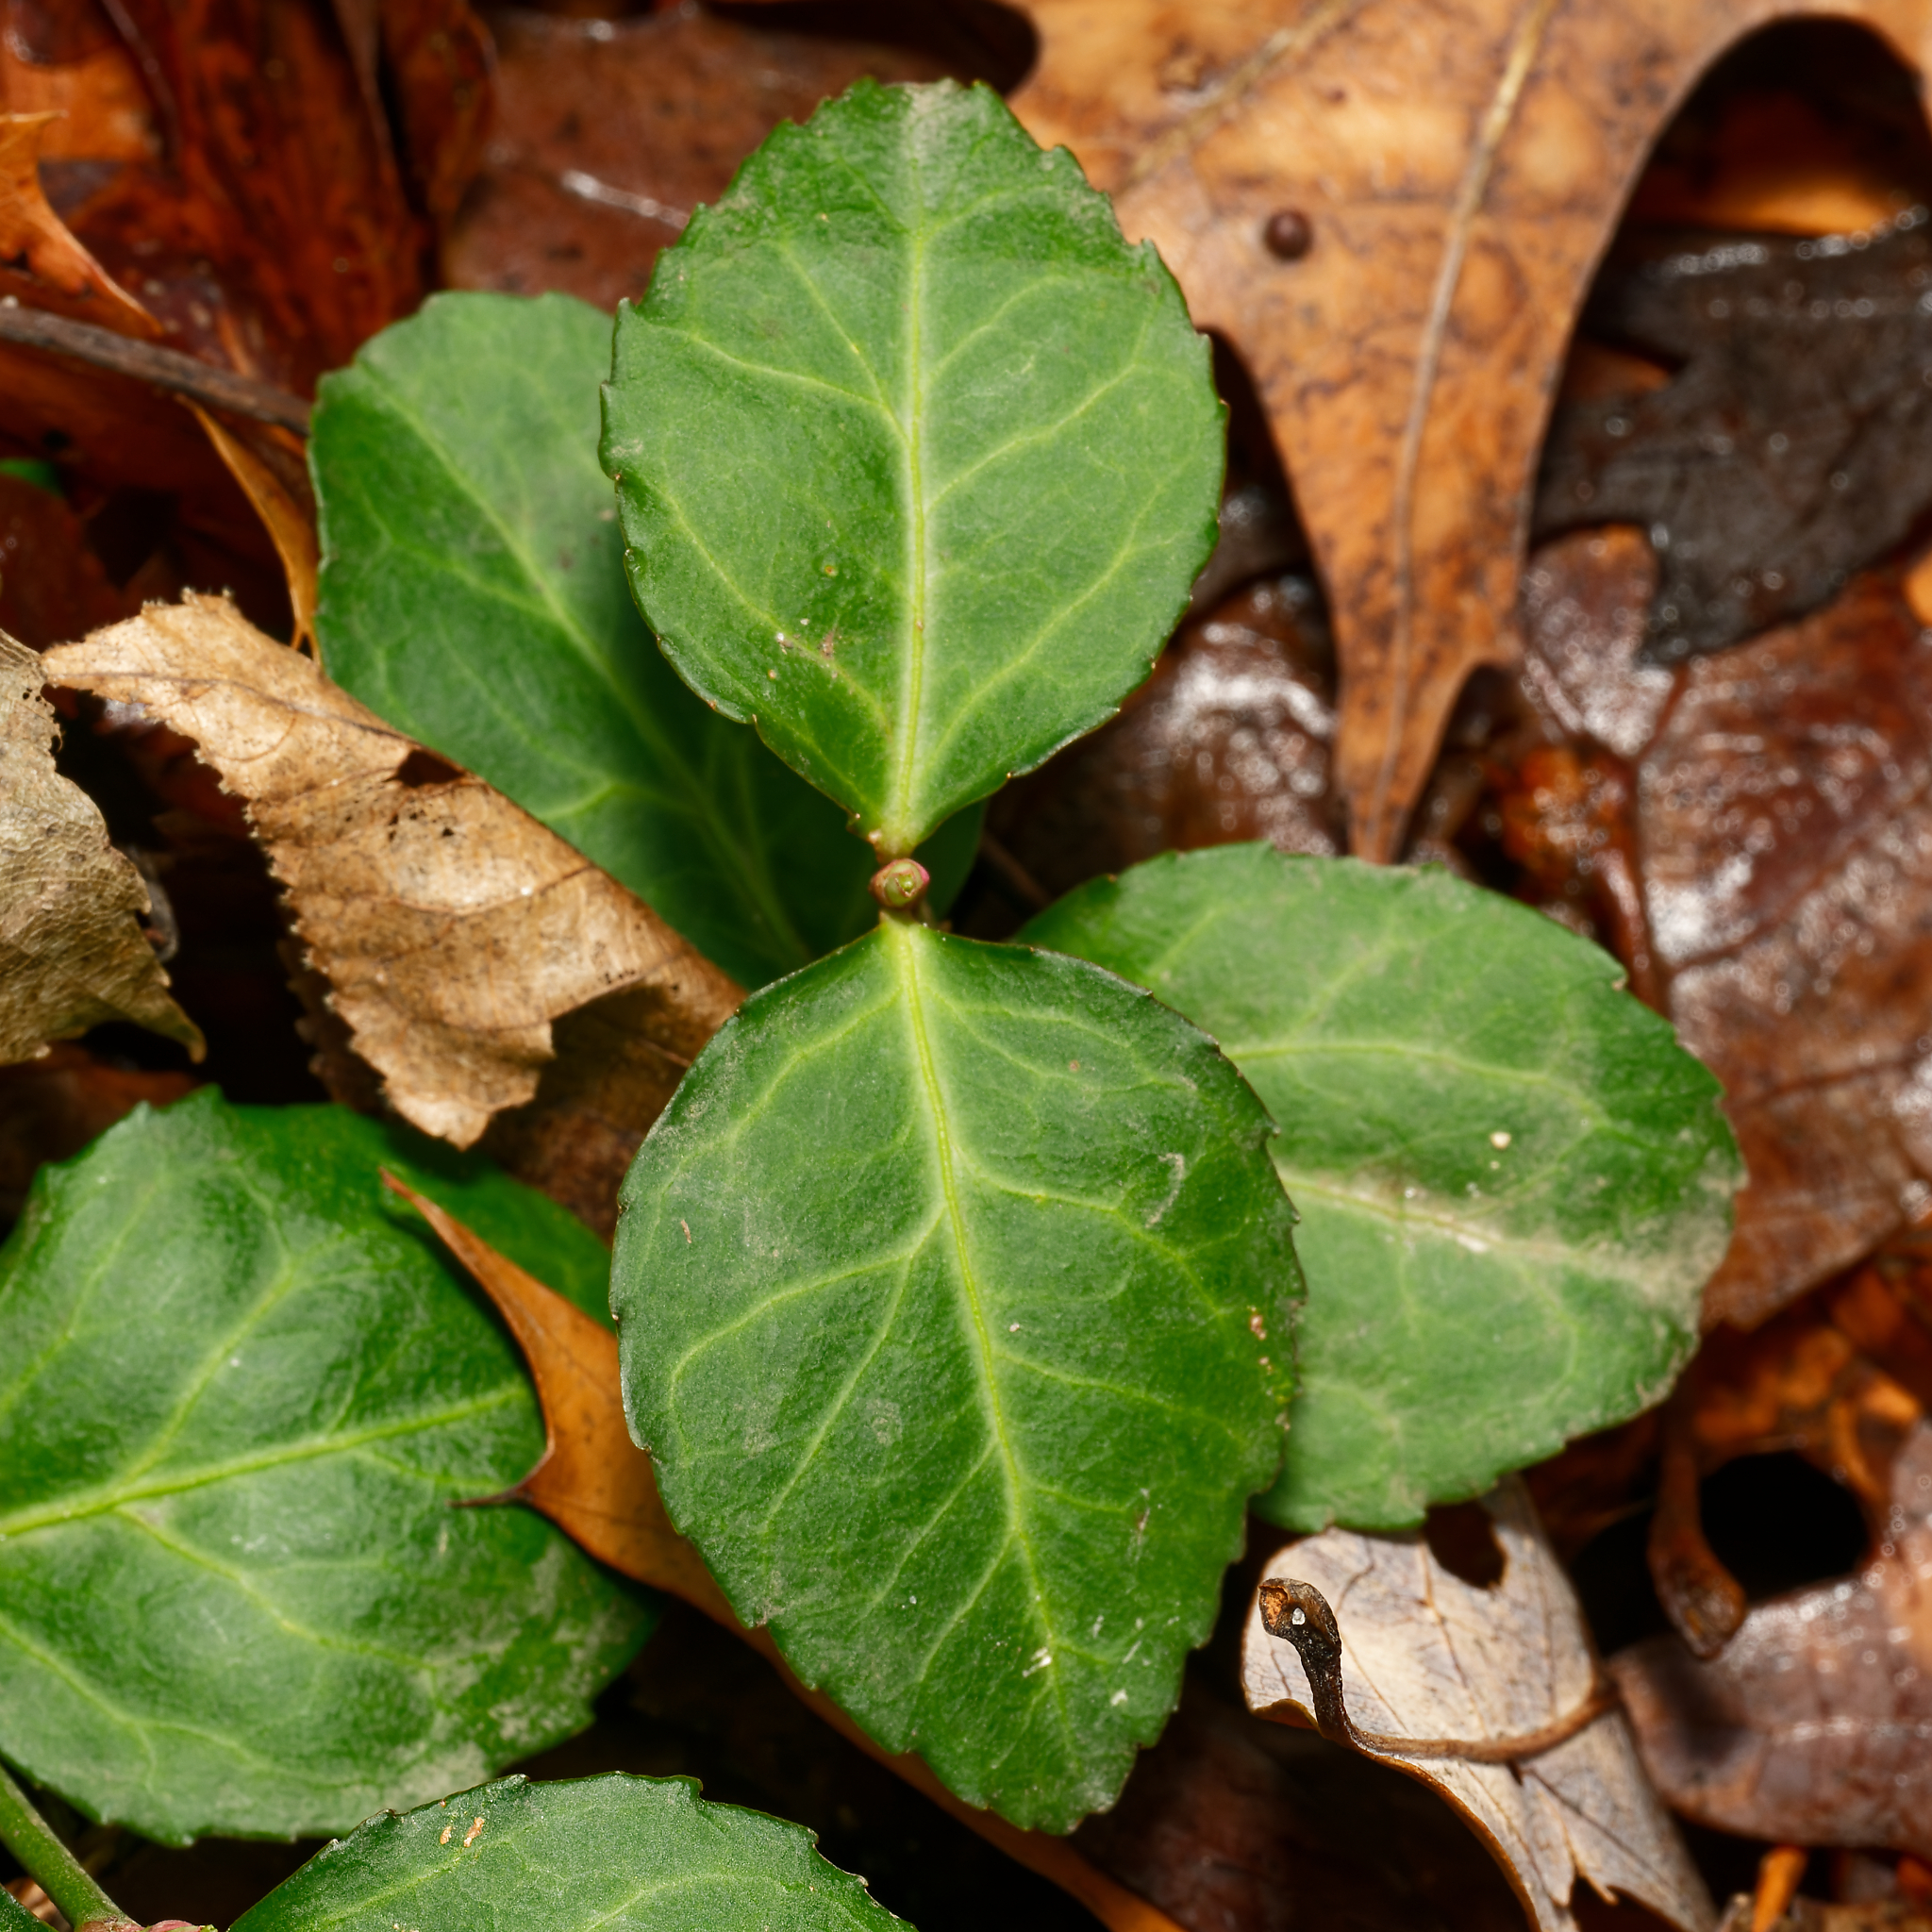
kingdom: Plantae
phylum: Tracheophyta
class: Magnoliopsida
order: Celastrales
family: Celastraceae
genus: Euonymus
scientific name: Euonymus fortunei
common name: Climbing euonymus
